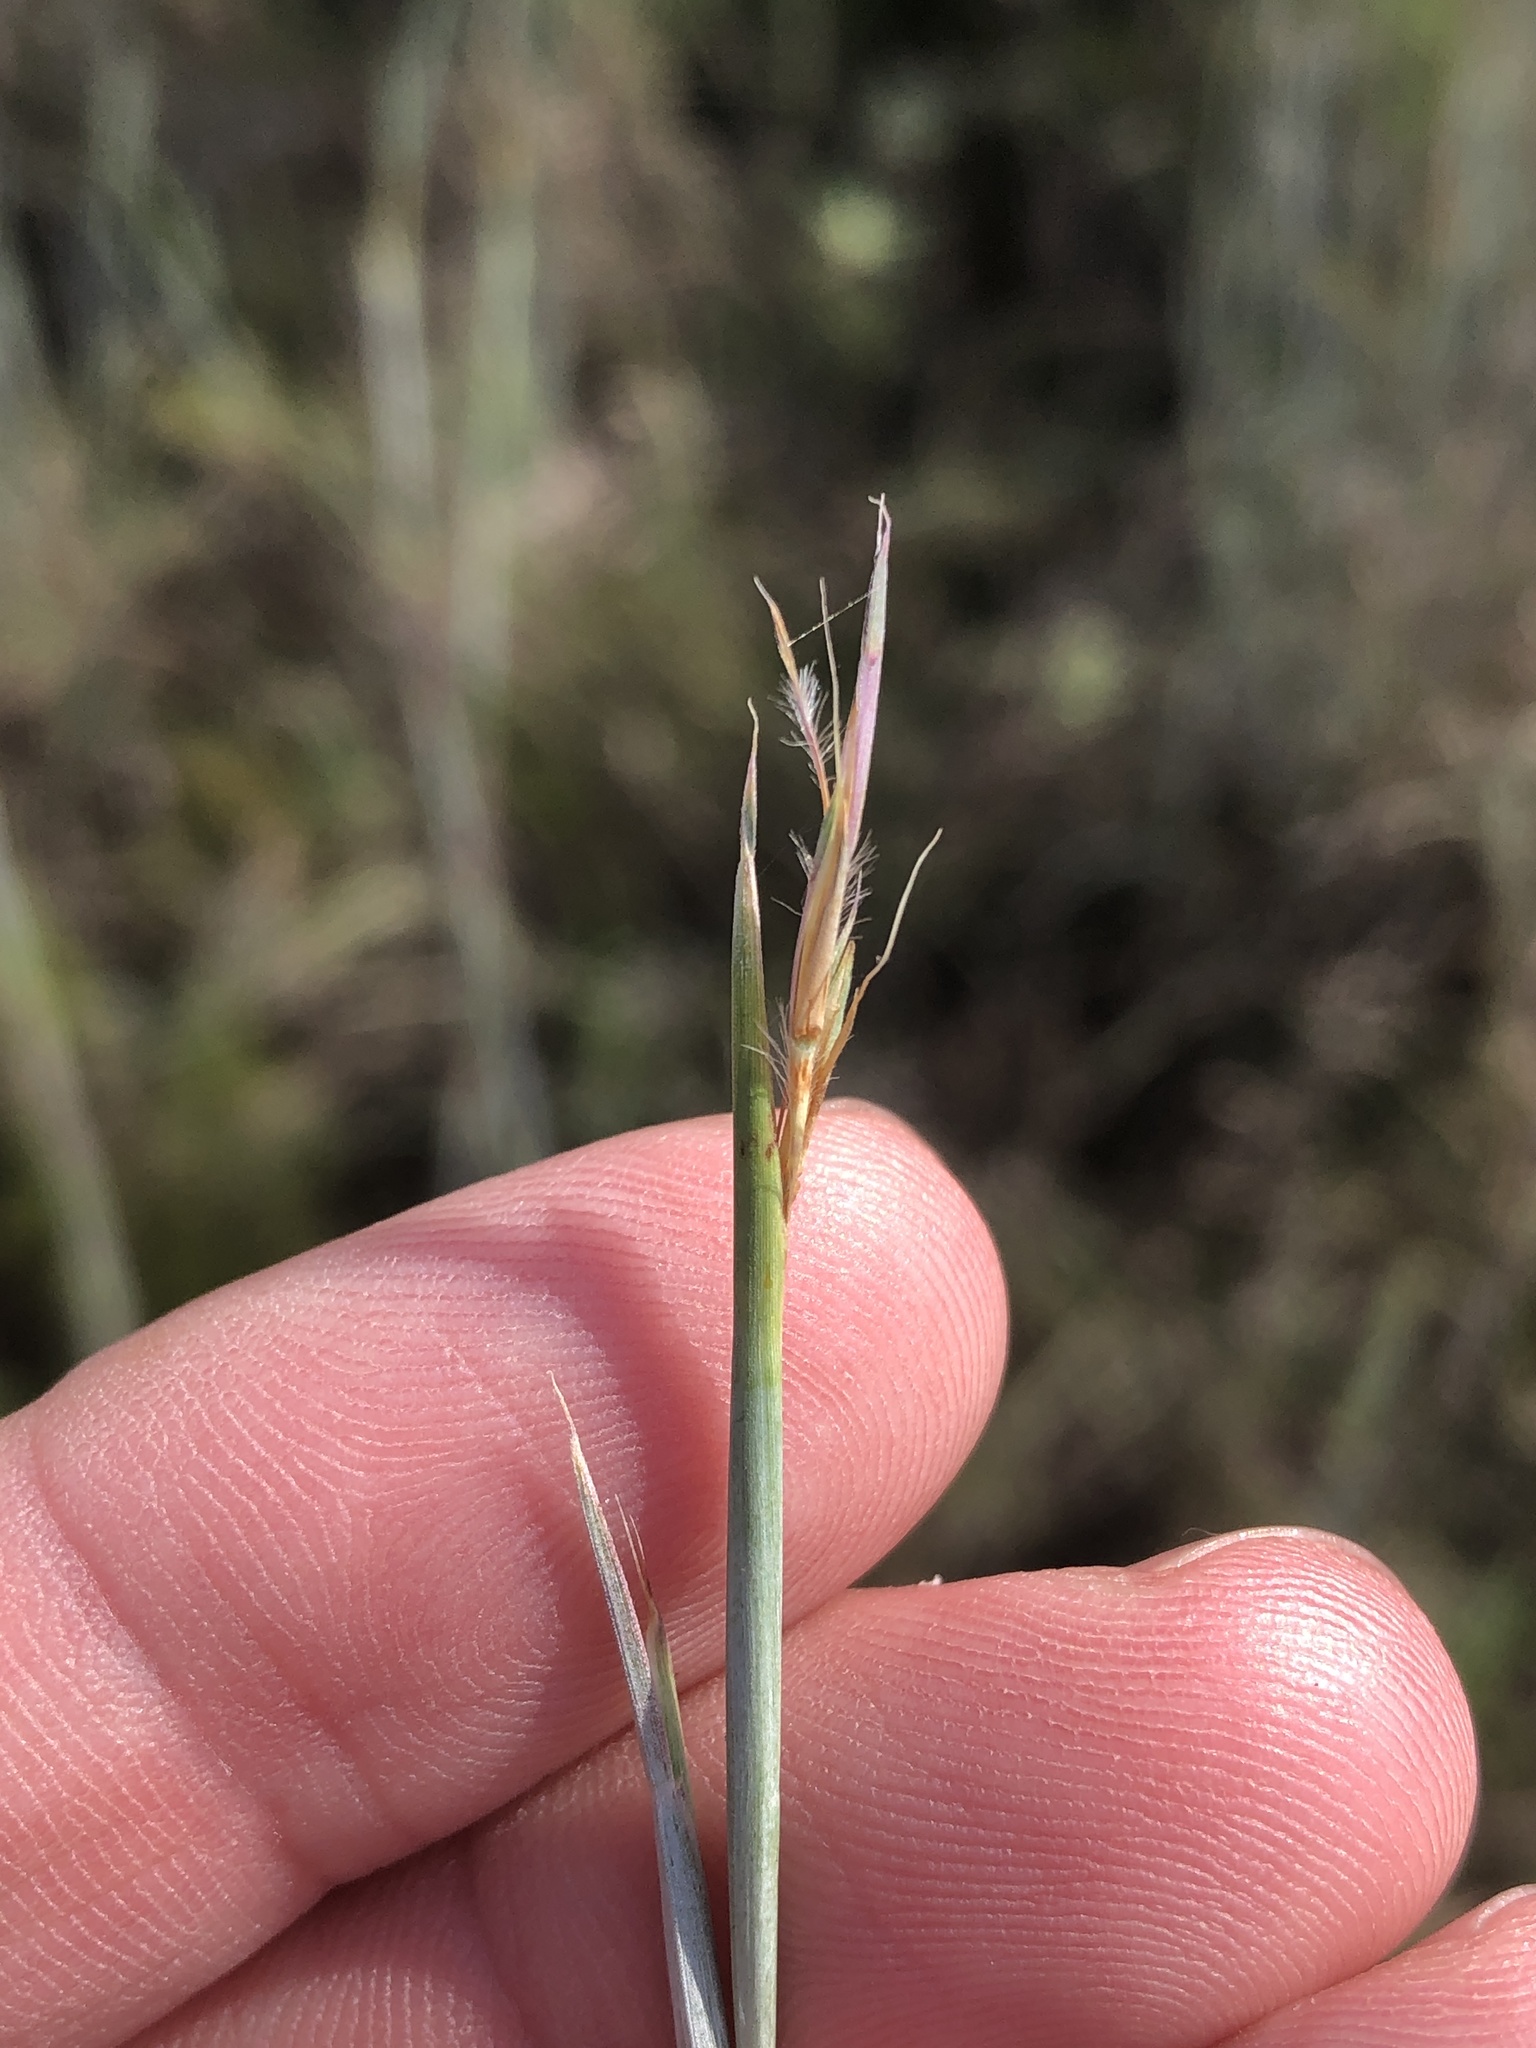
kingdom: Plantae
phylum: Tracheophyta
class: Liliopsida
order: Poales
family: Poaceae
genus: Schizachyrium
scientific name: Schizachyrium scoparium
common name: Little bluestem
